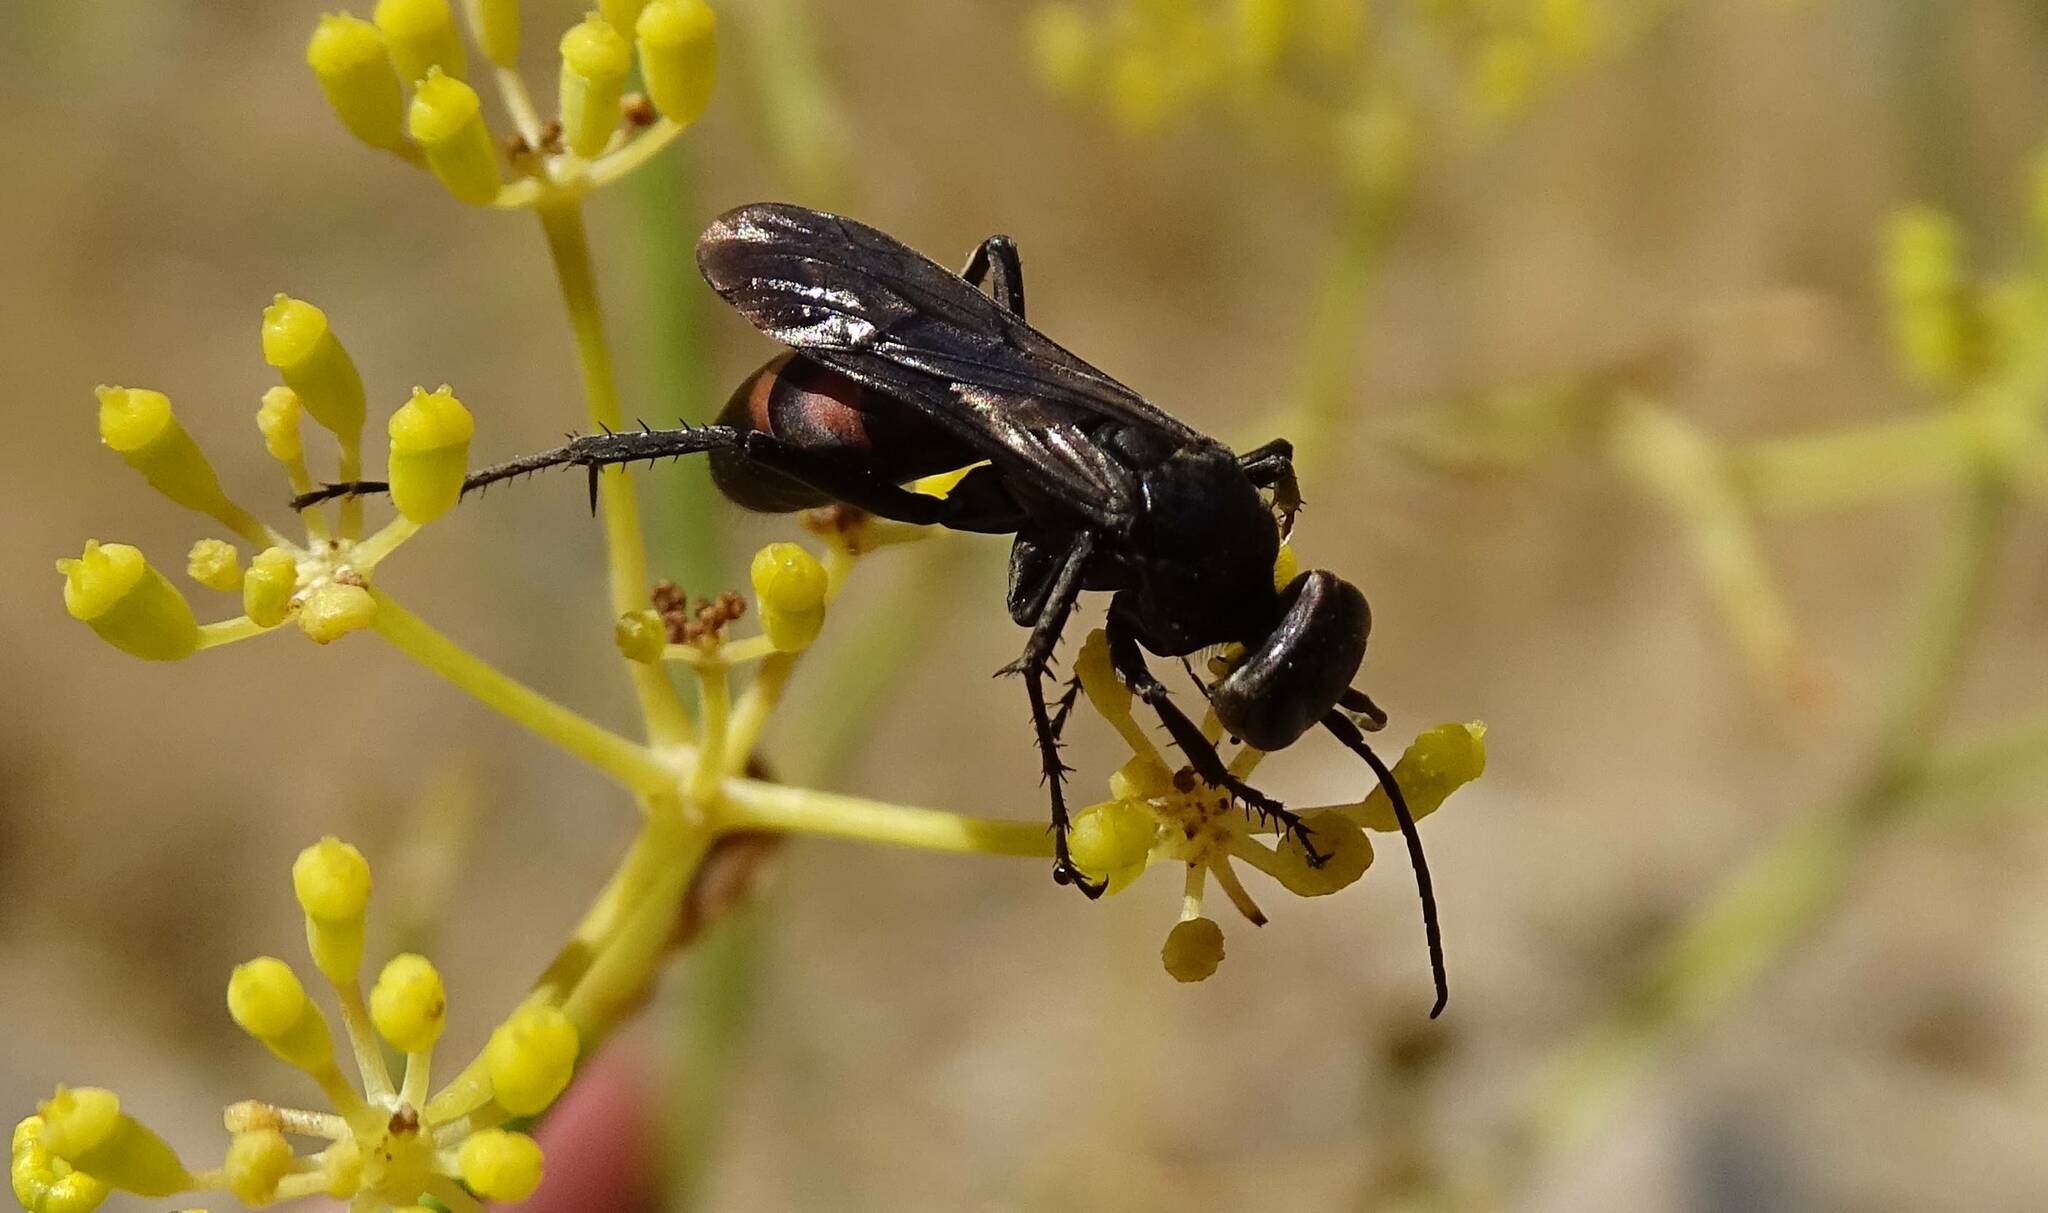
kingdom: Animalia
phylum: Arthropoda
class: Insecta
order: Hymenoptera
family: Pompilidae
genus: Anoplius
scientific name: Anoplius viaticus
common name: Black banded spider wasp
